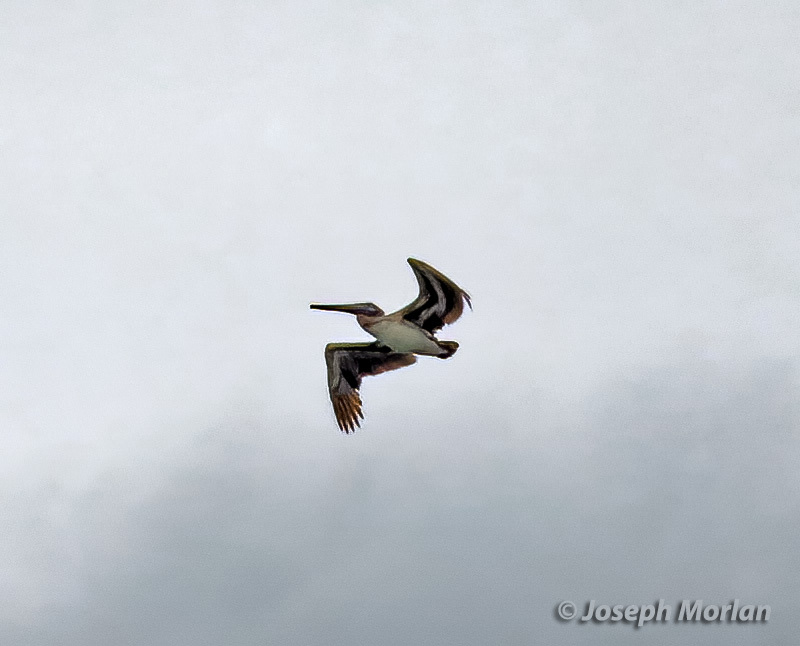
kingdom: Animalia
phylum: Chordata
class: Aves
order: Pelecaniformes
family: Pelecanidae
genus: Pelecanus
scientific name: Pelecanus occidentalis
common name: Brown pelican
